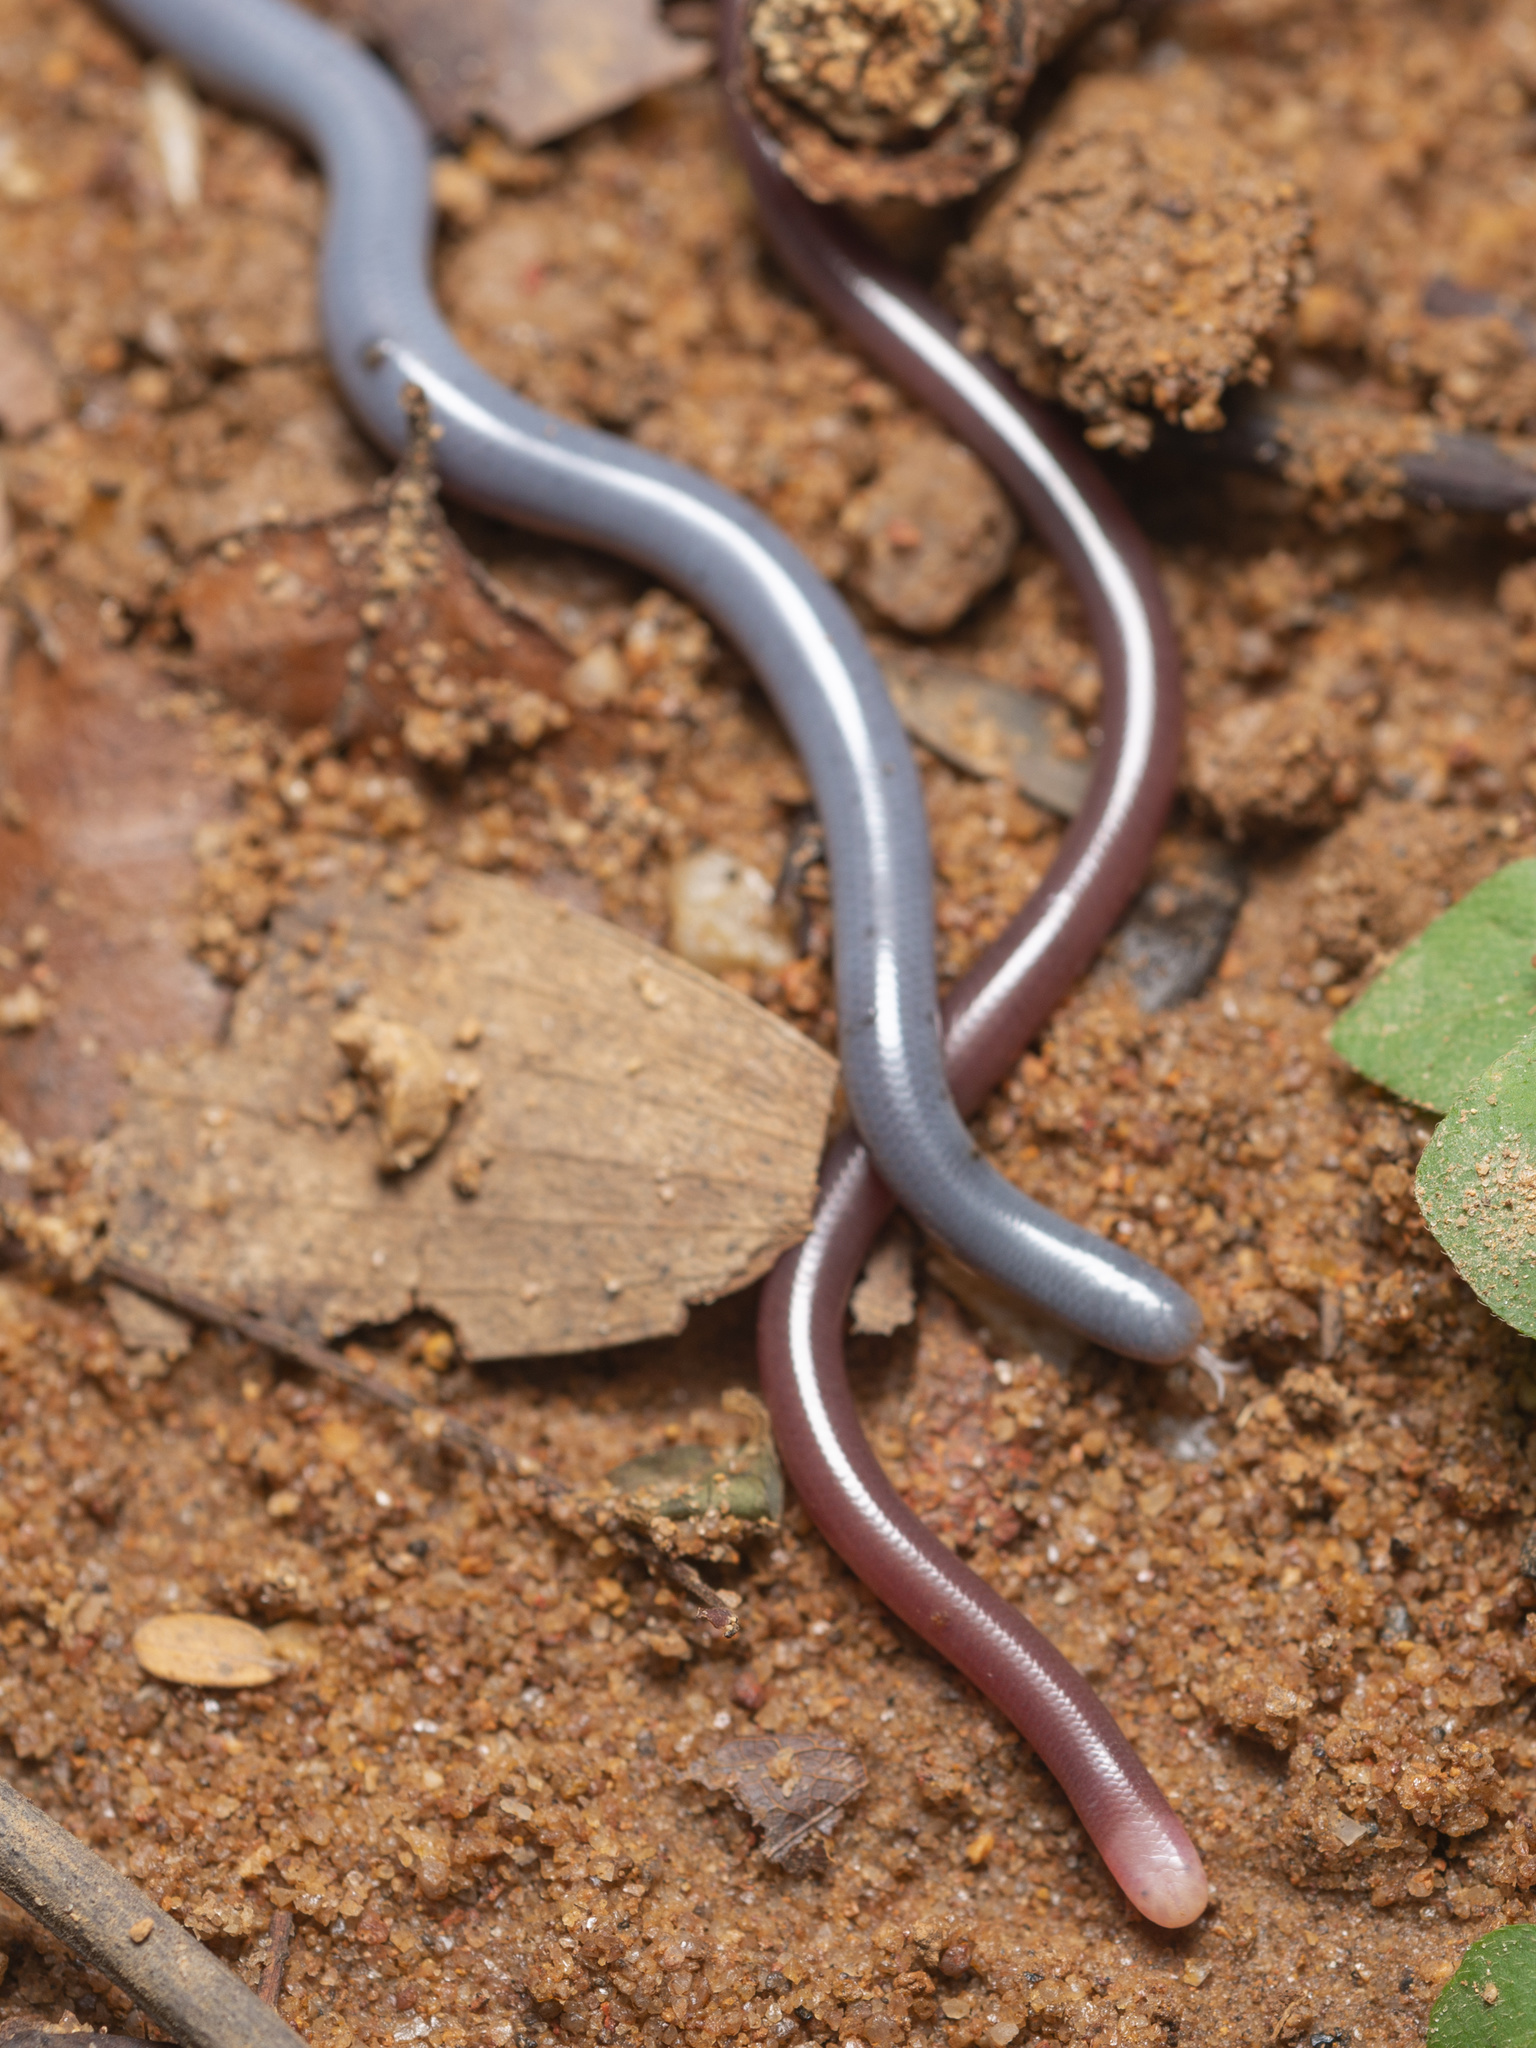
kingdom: Animalia
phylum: Chordata
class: Squamata
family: Typhlopidae
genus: Indotyphlops
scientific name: Indotyphlops albiceps
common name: White-headed blind snake
